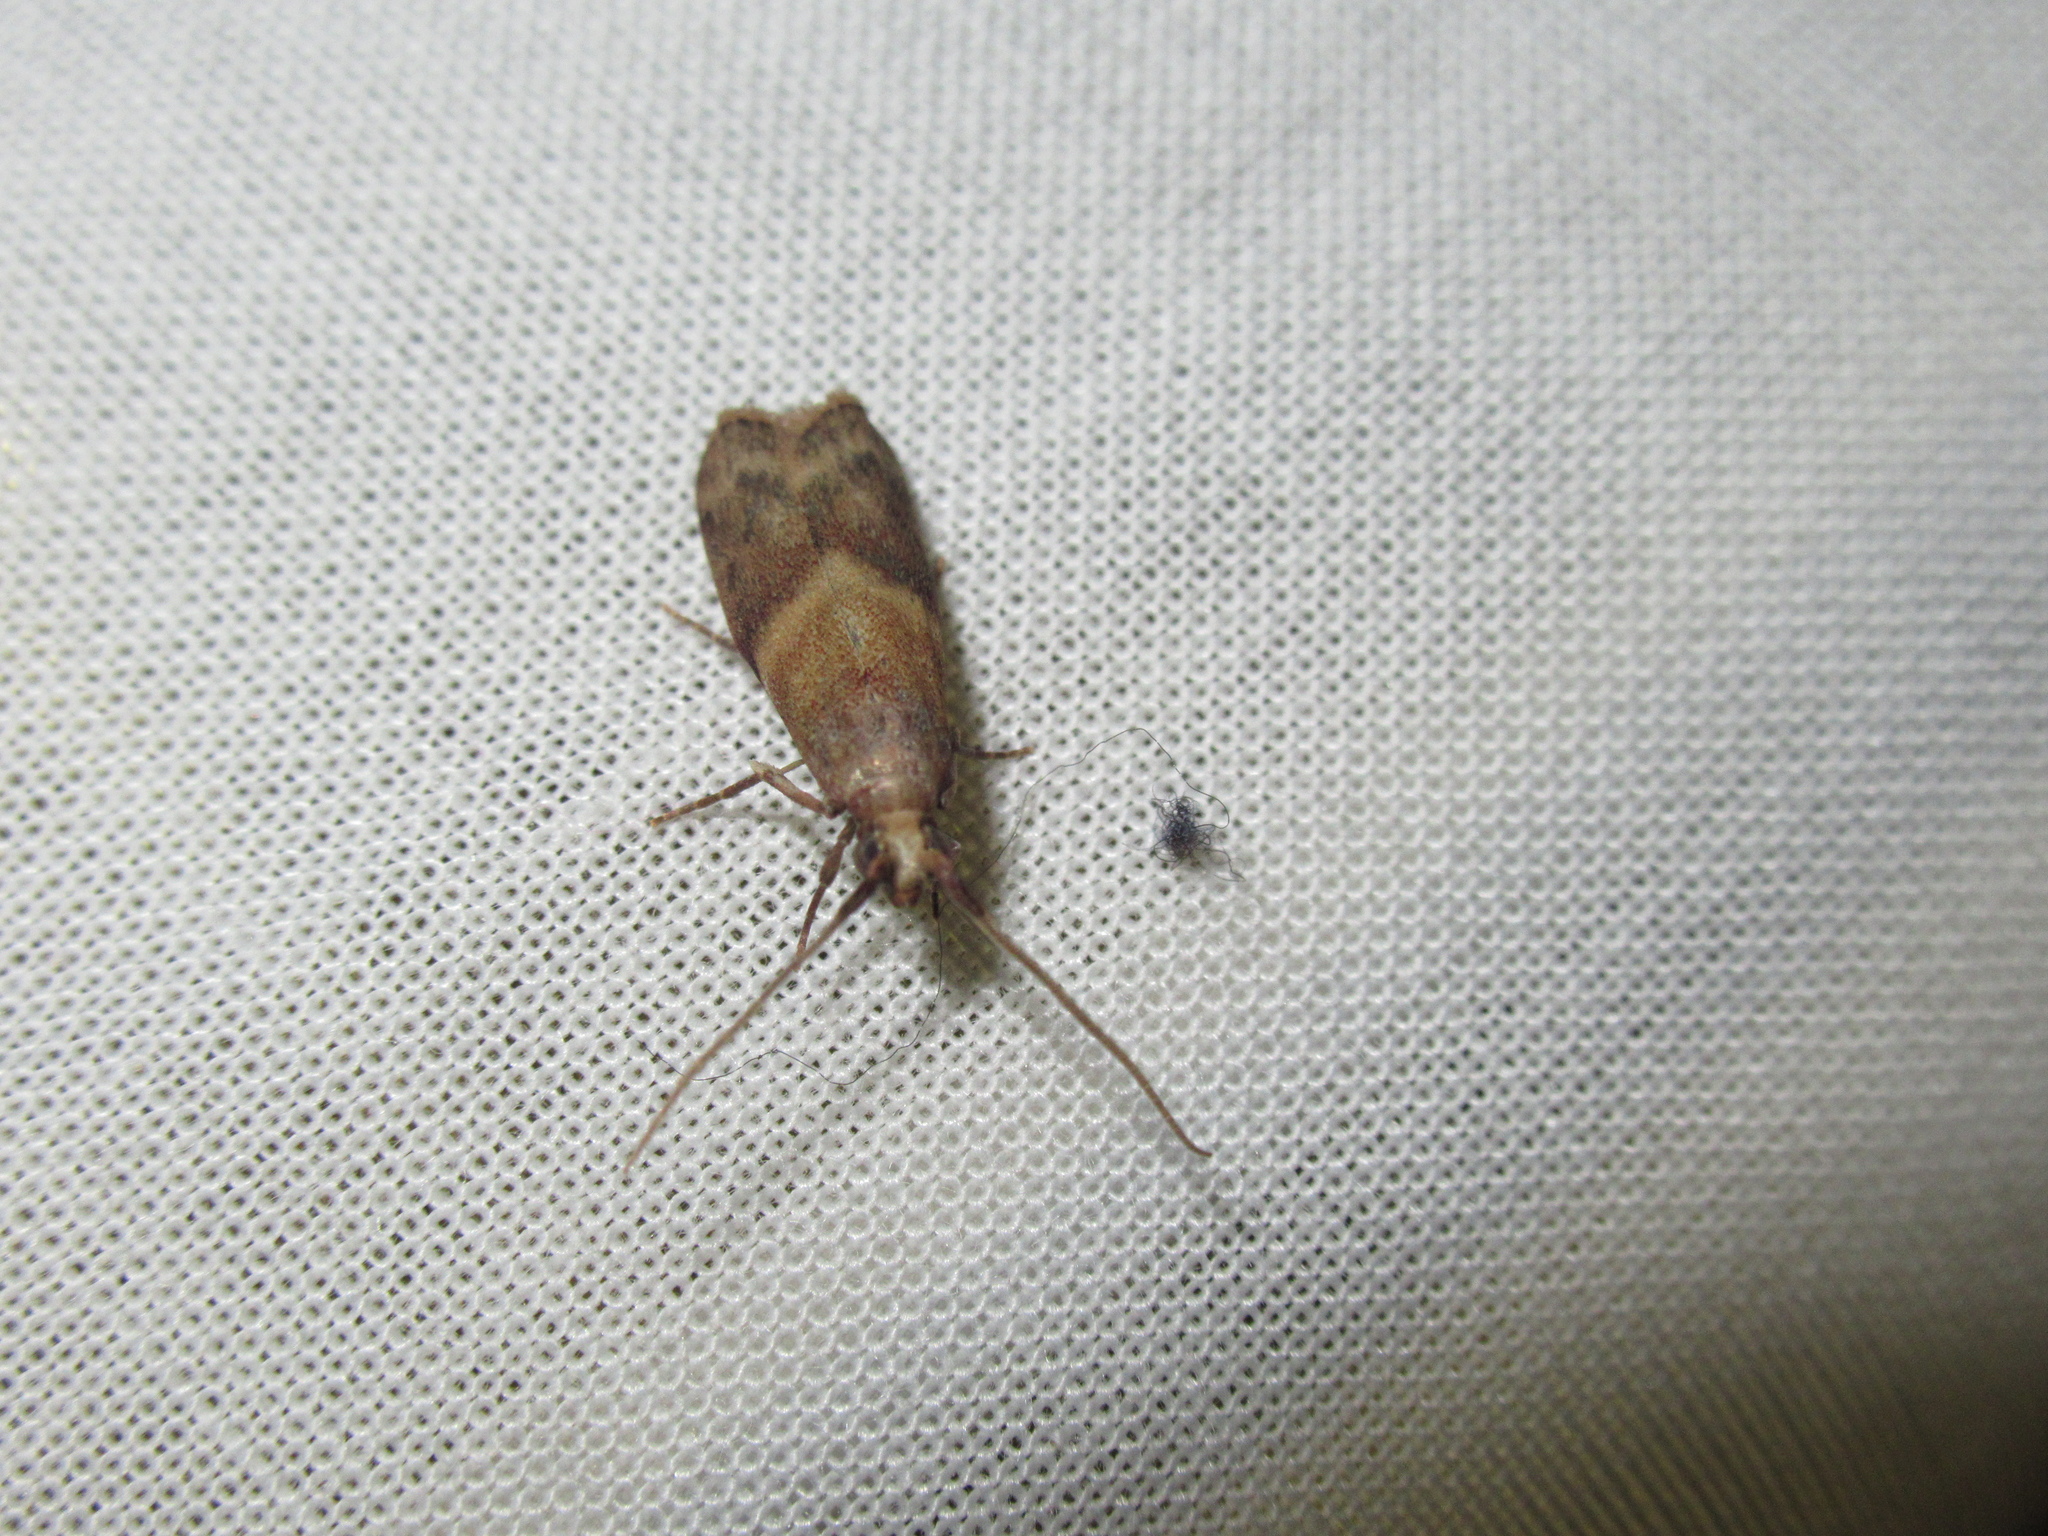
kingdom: Animalia
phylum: Arthropoda
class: Insecta
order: Lepidoptera
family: Pyralidae
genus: Ptyomaxia
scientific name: Ptyomaxia trigonogramma
